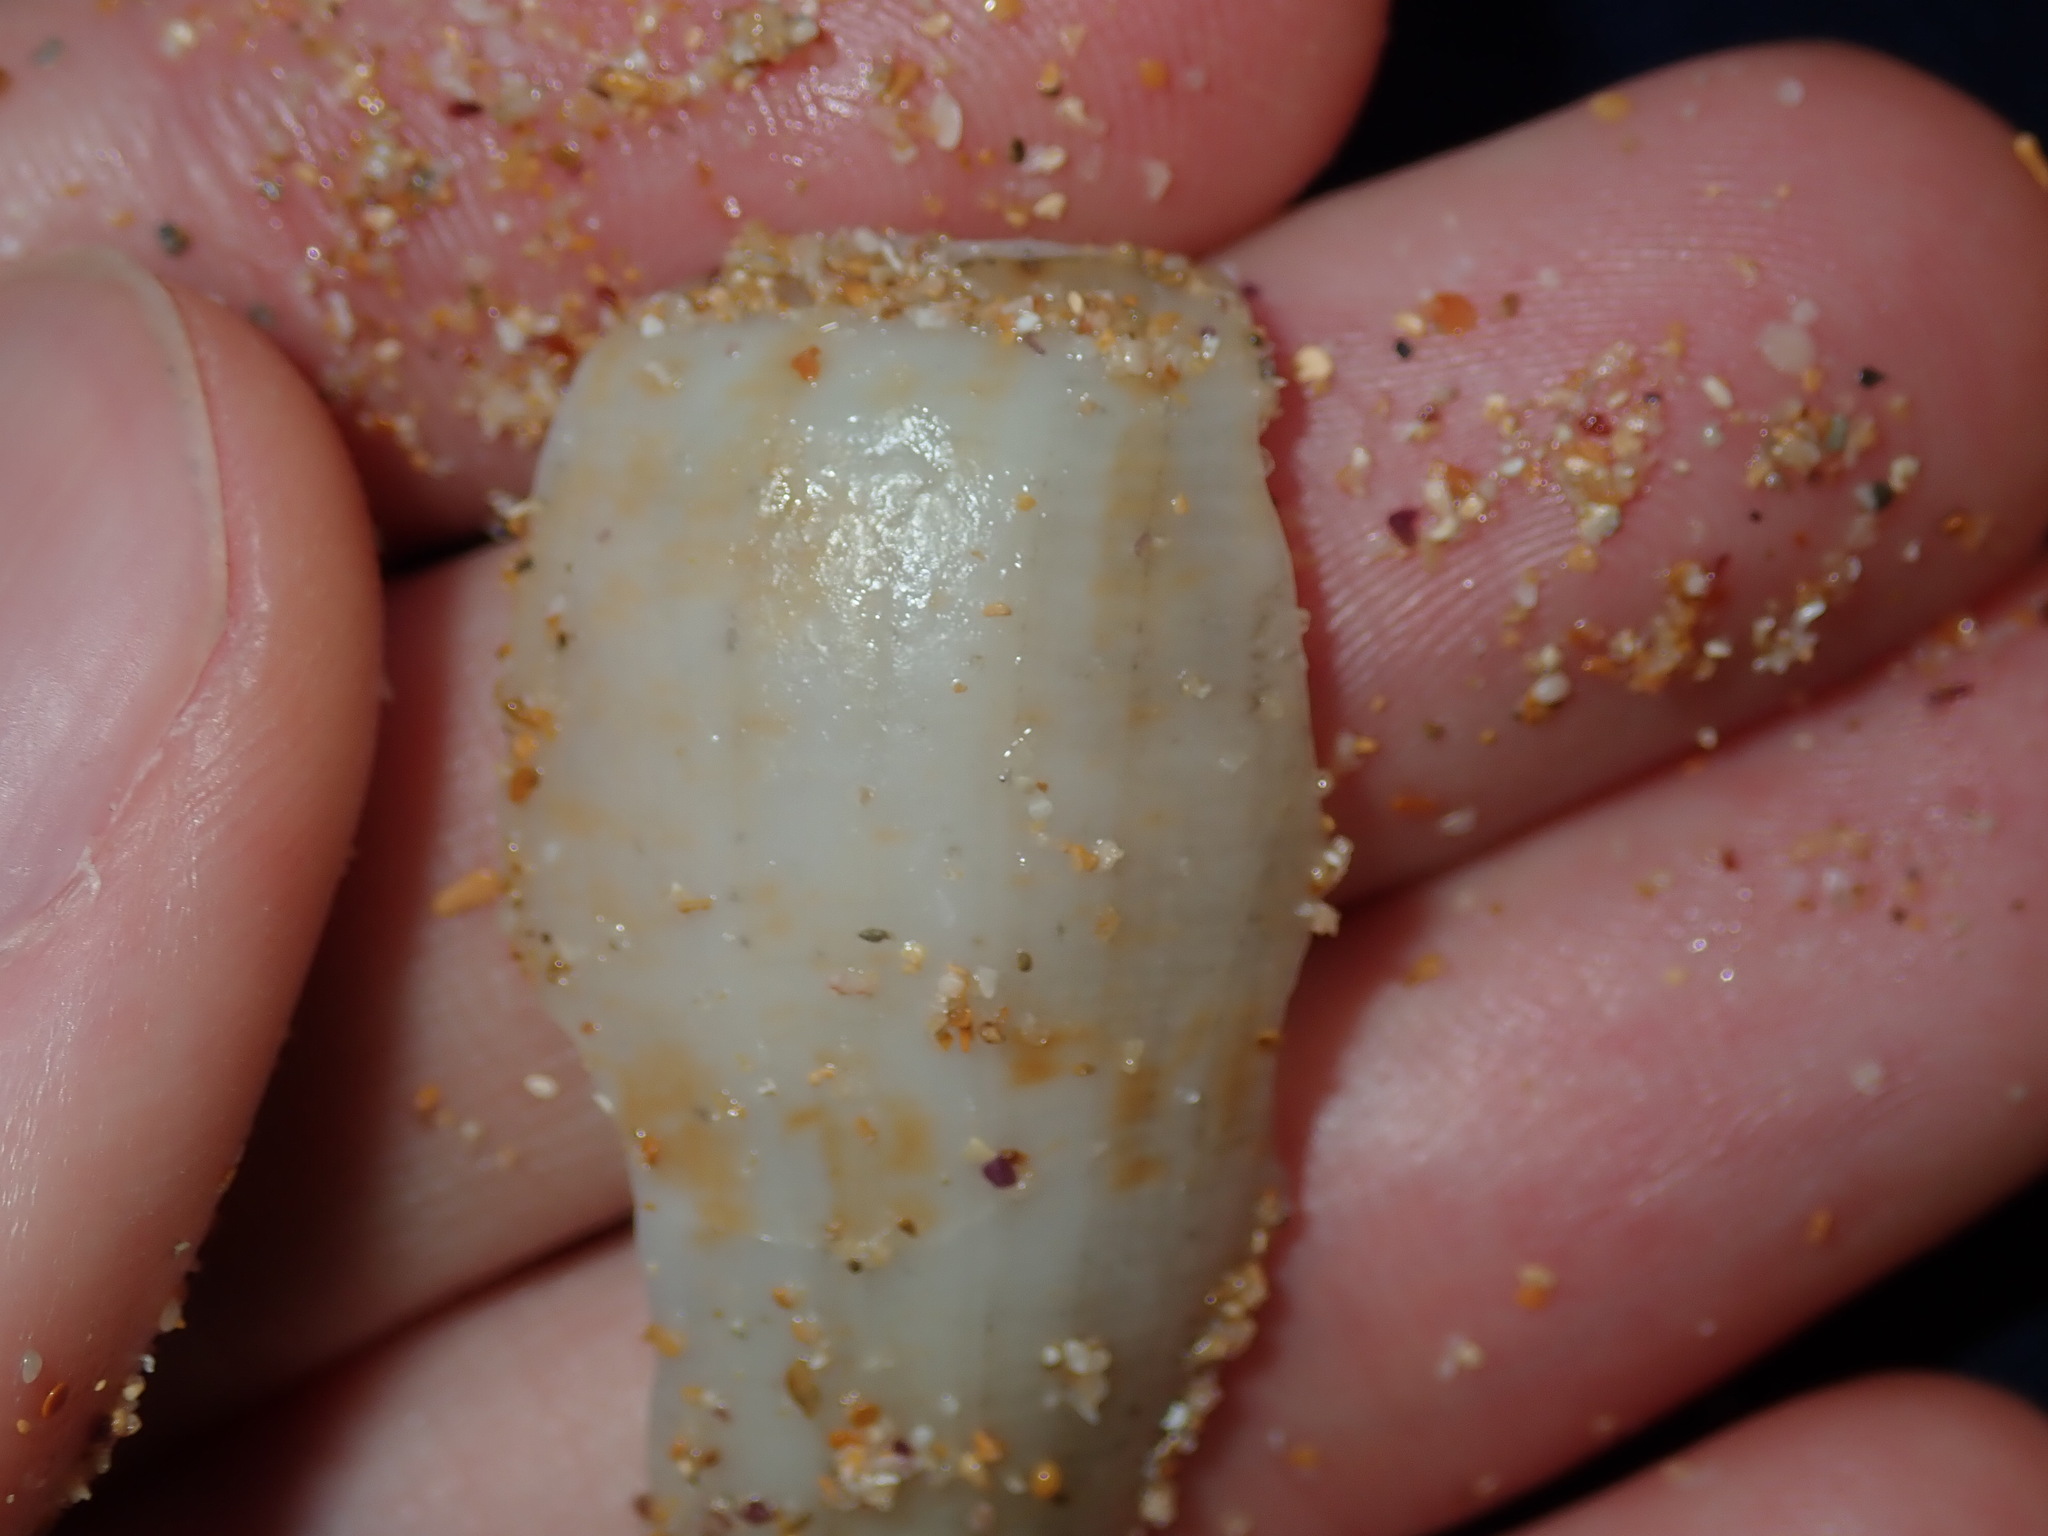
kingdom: Animalia
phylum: Mollusca
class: Gastropoda
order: Neogastropoda
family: Conidae
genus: Conus
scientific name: Conus anemone
